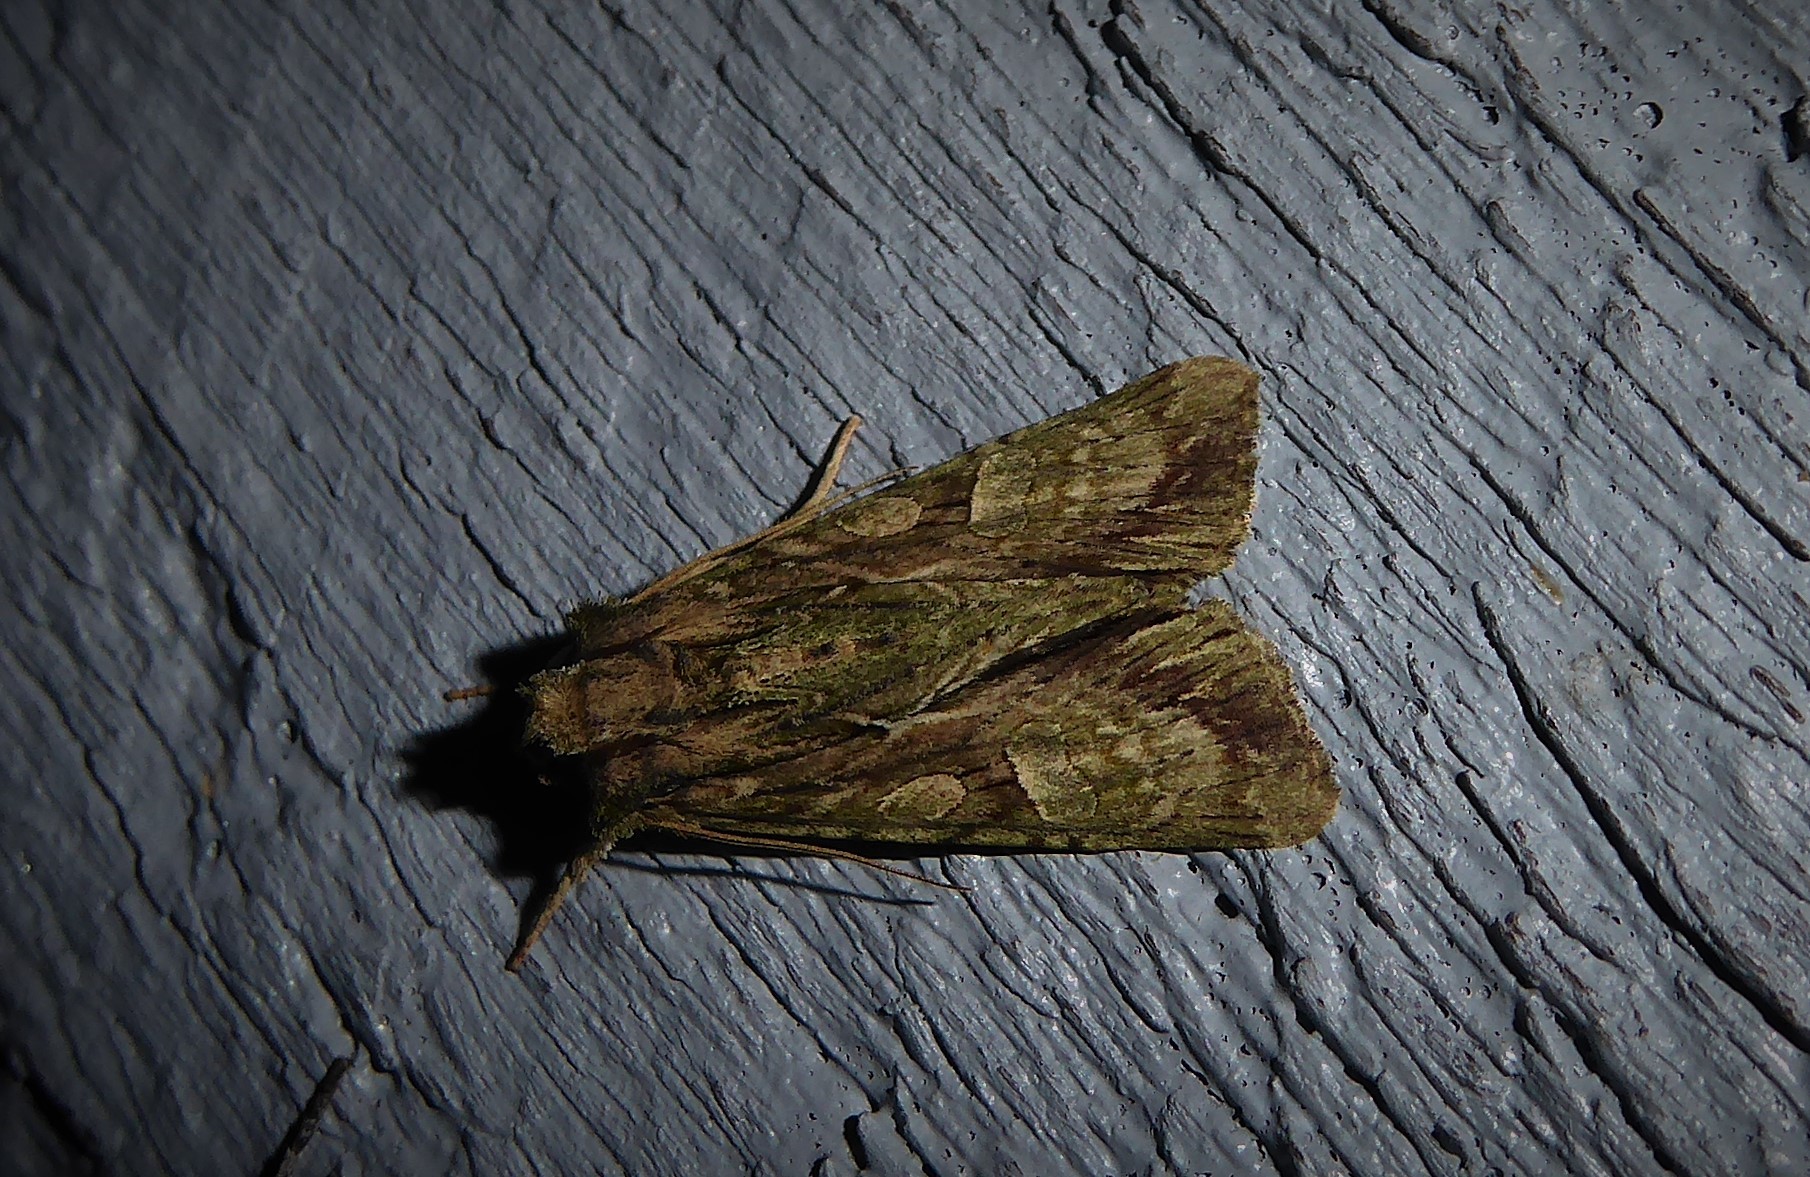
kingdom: Animalia
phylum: Arthropoda
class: Insecta
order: Lepidoptera
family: Noctuidae
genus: Meterana
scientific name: Meterana decorata
